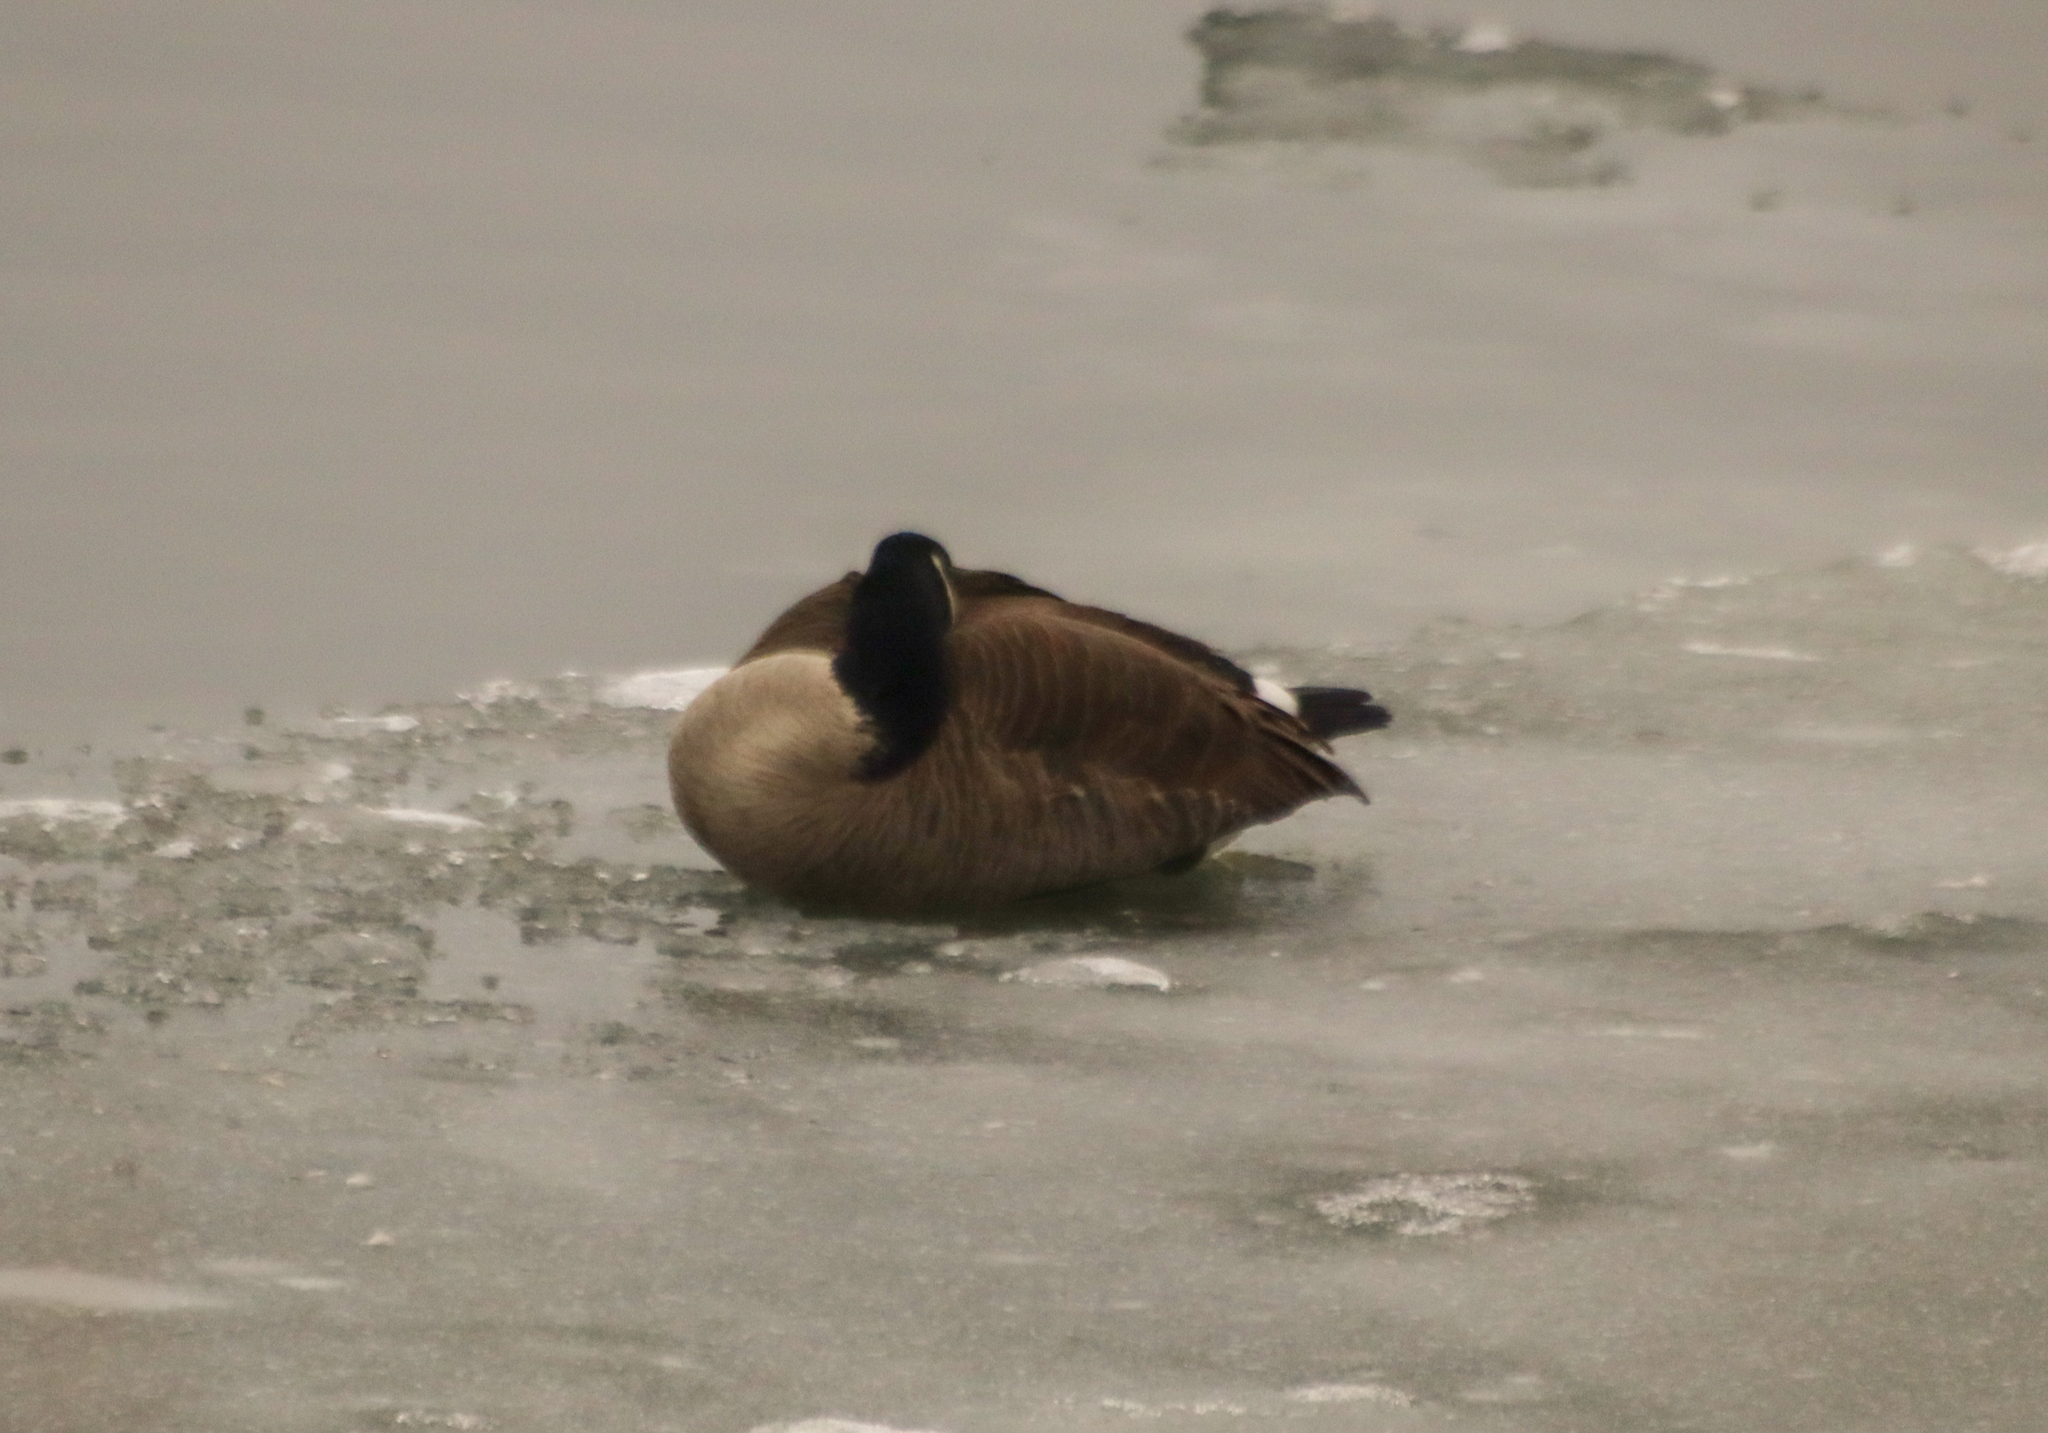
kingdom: Animalia
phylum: Chordata
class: Aves
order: Anseriformes
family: Anatidae
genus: Branta
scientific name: Branta canadensis
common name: Canada goose
